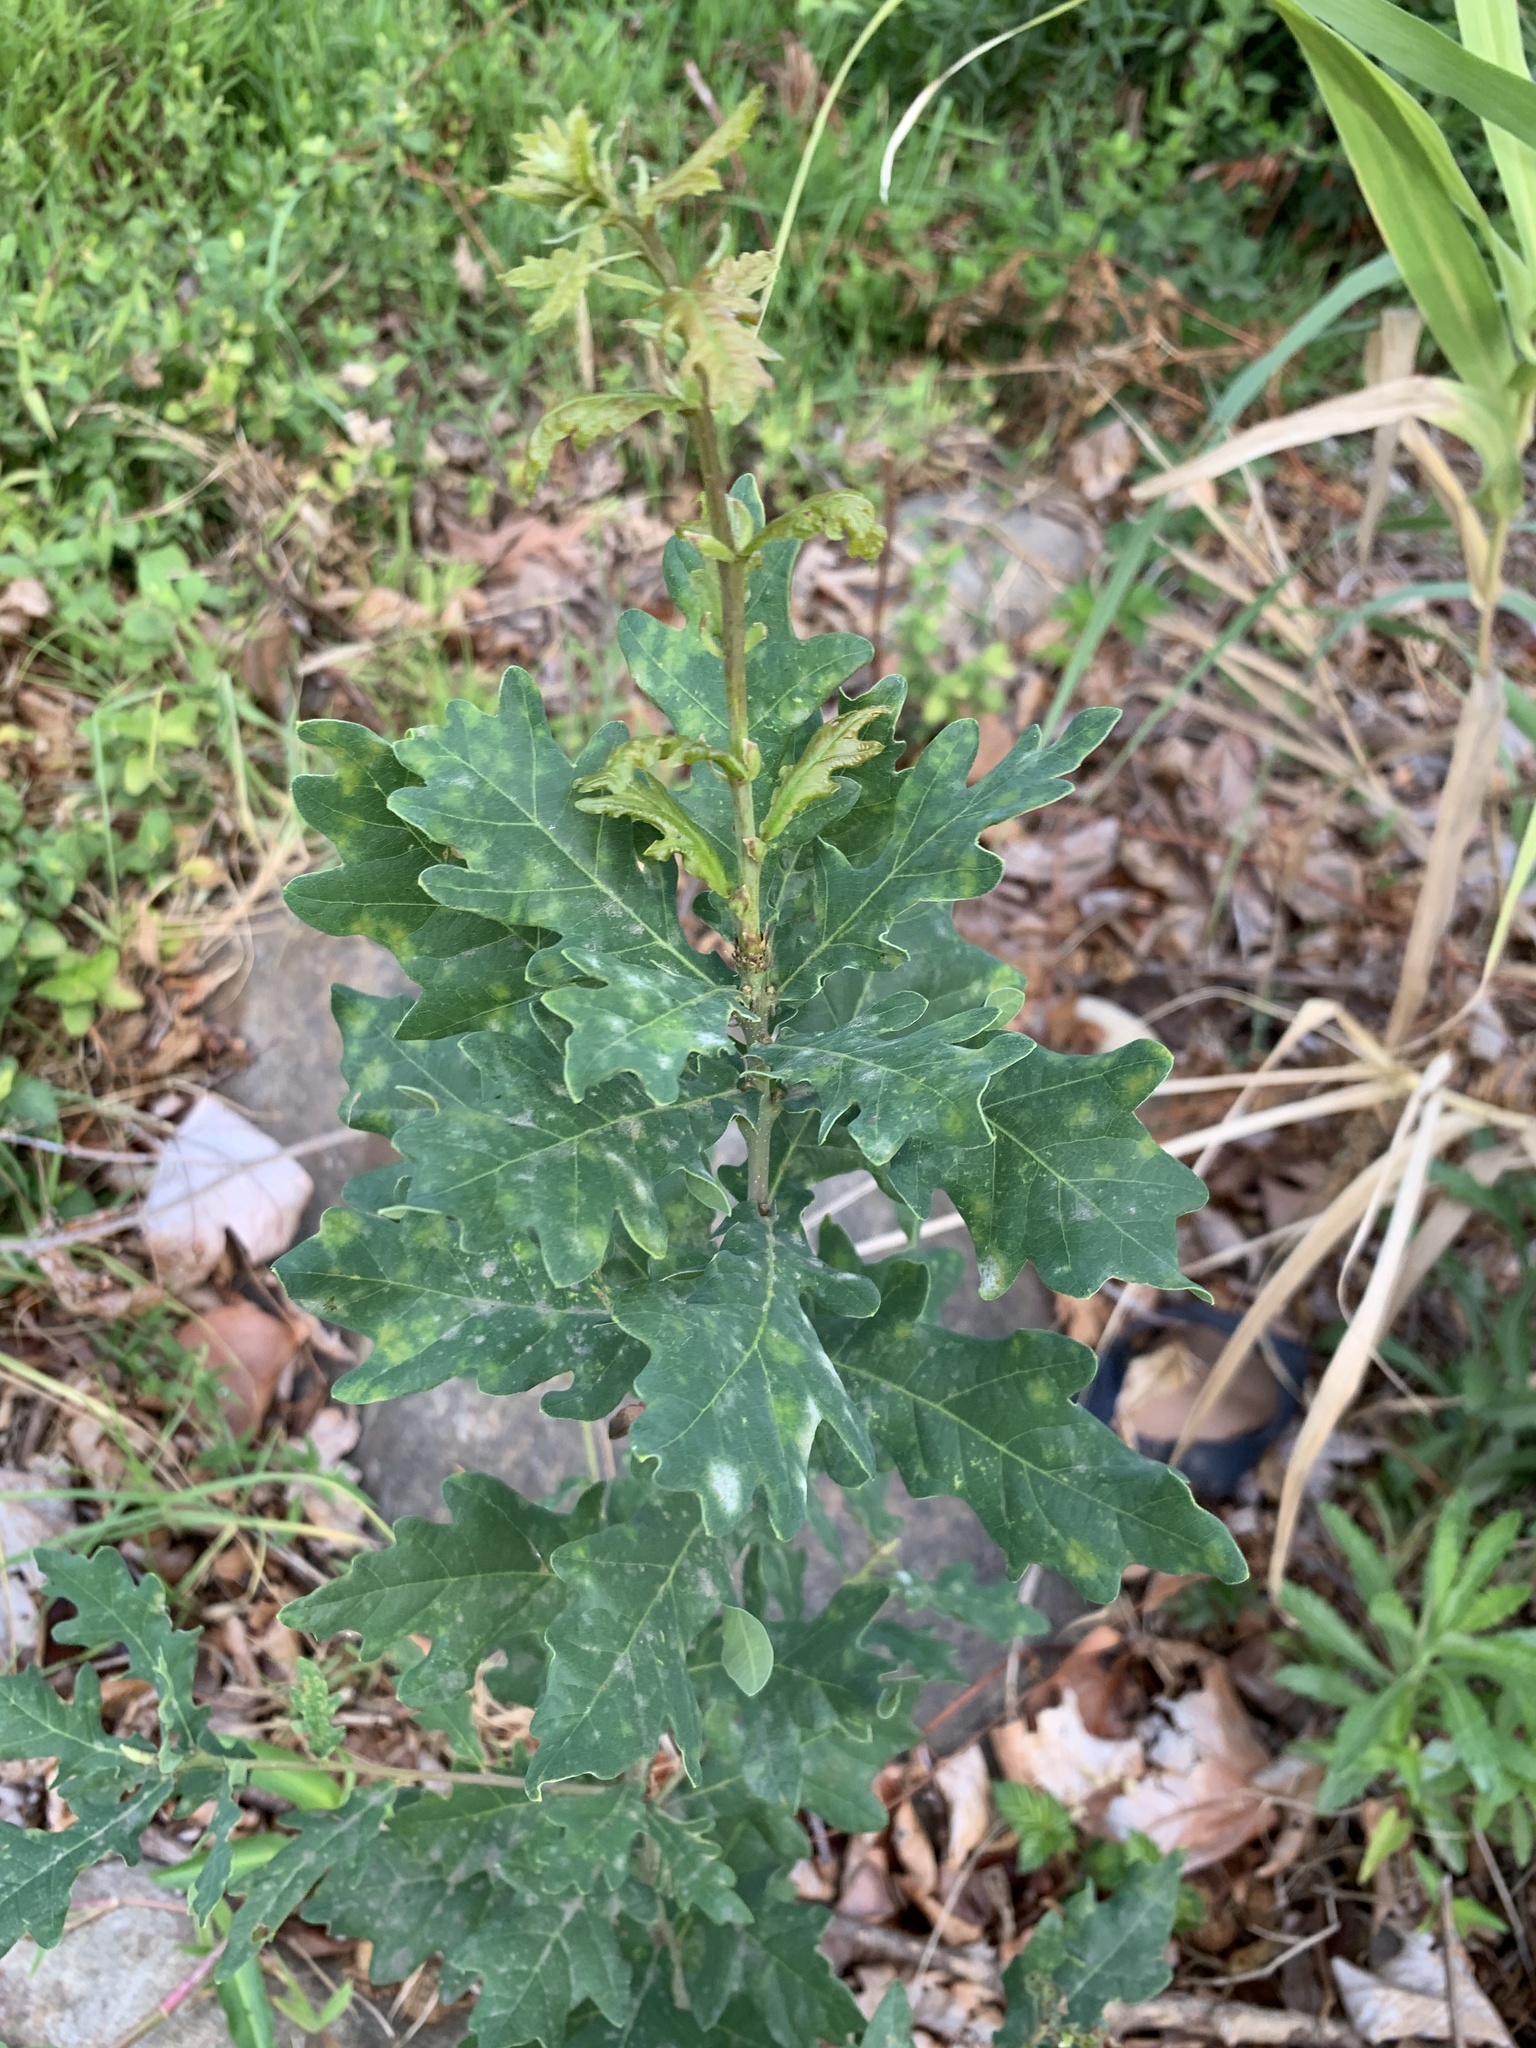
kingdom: Plantae
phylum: Tracheophyta
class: Magnoliopsida
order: Fagales
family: Fagaceae
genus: Quercus
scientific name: Quercus robur
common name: Pedunculate oak
